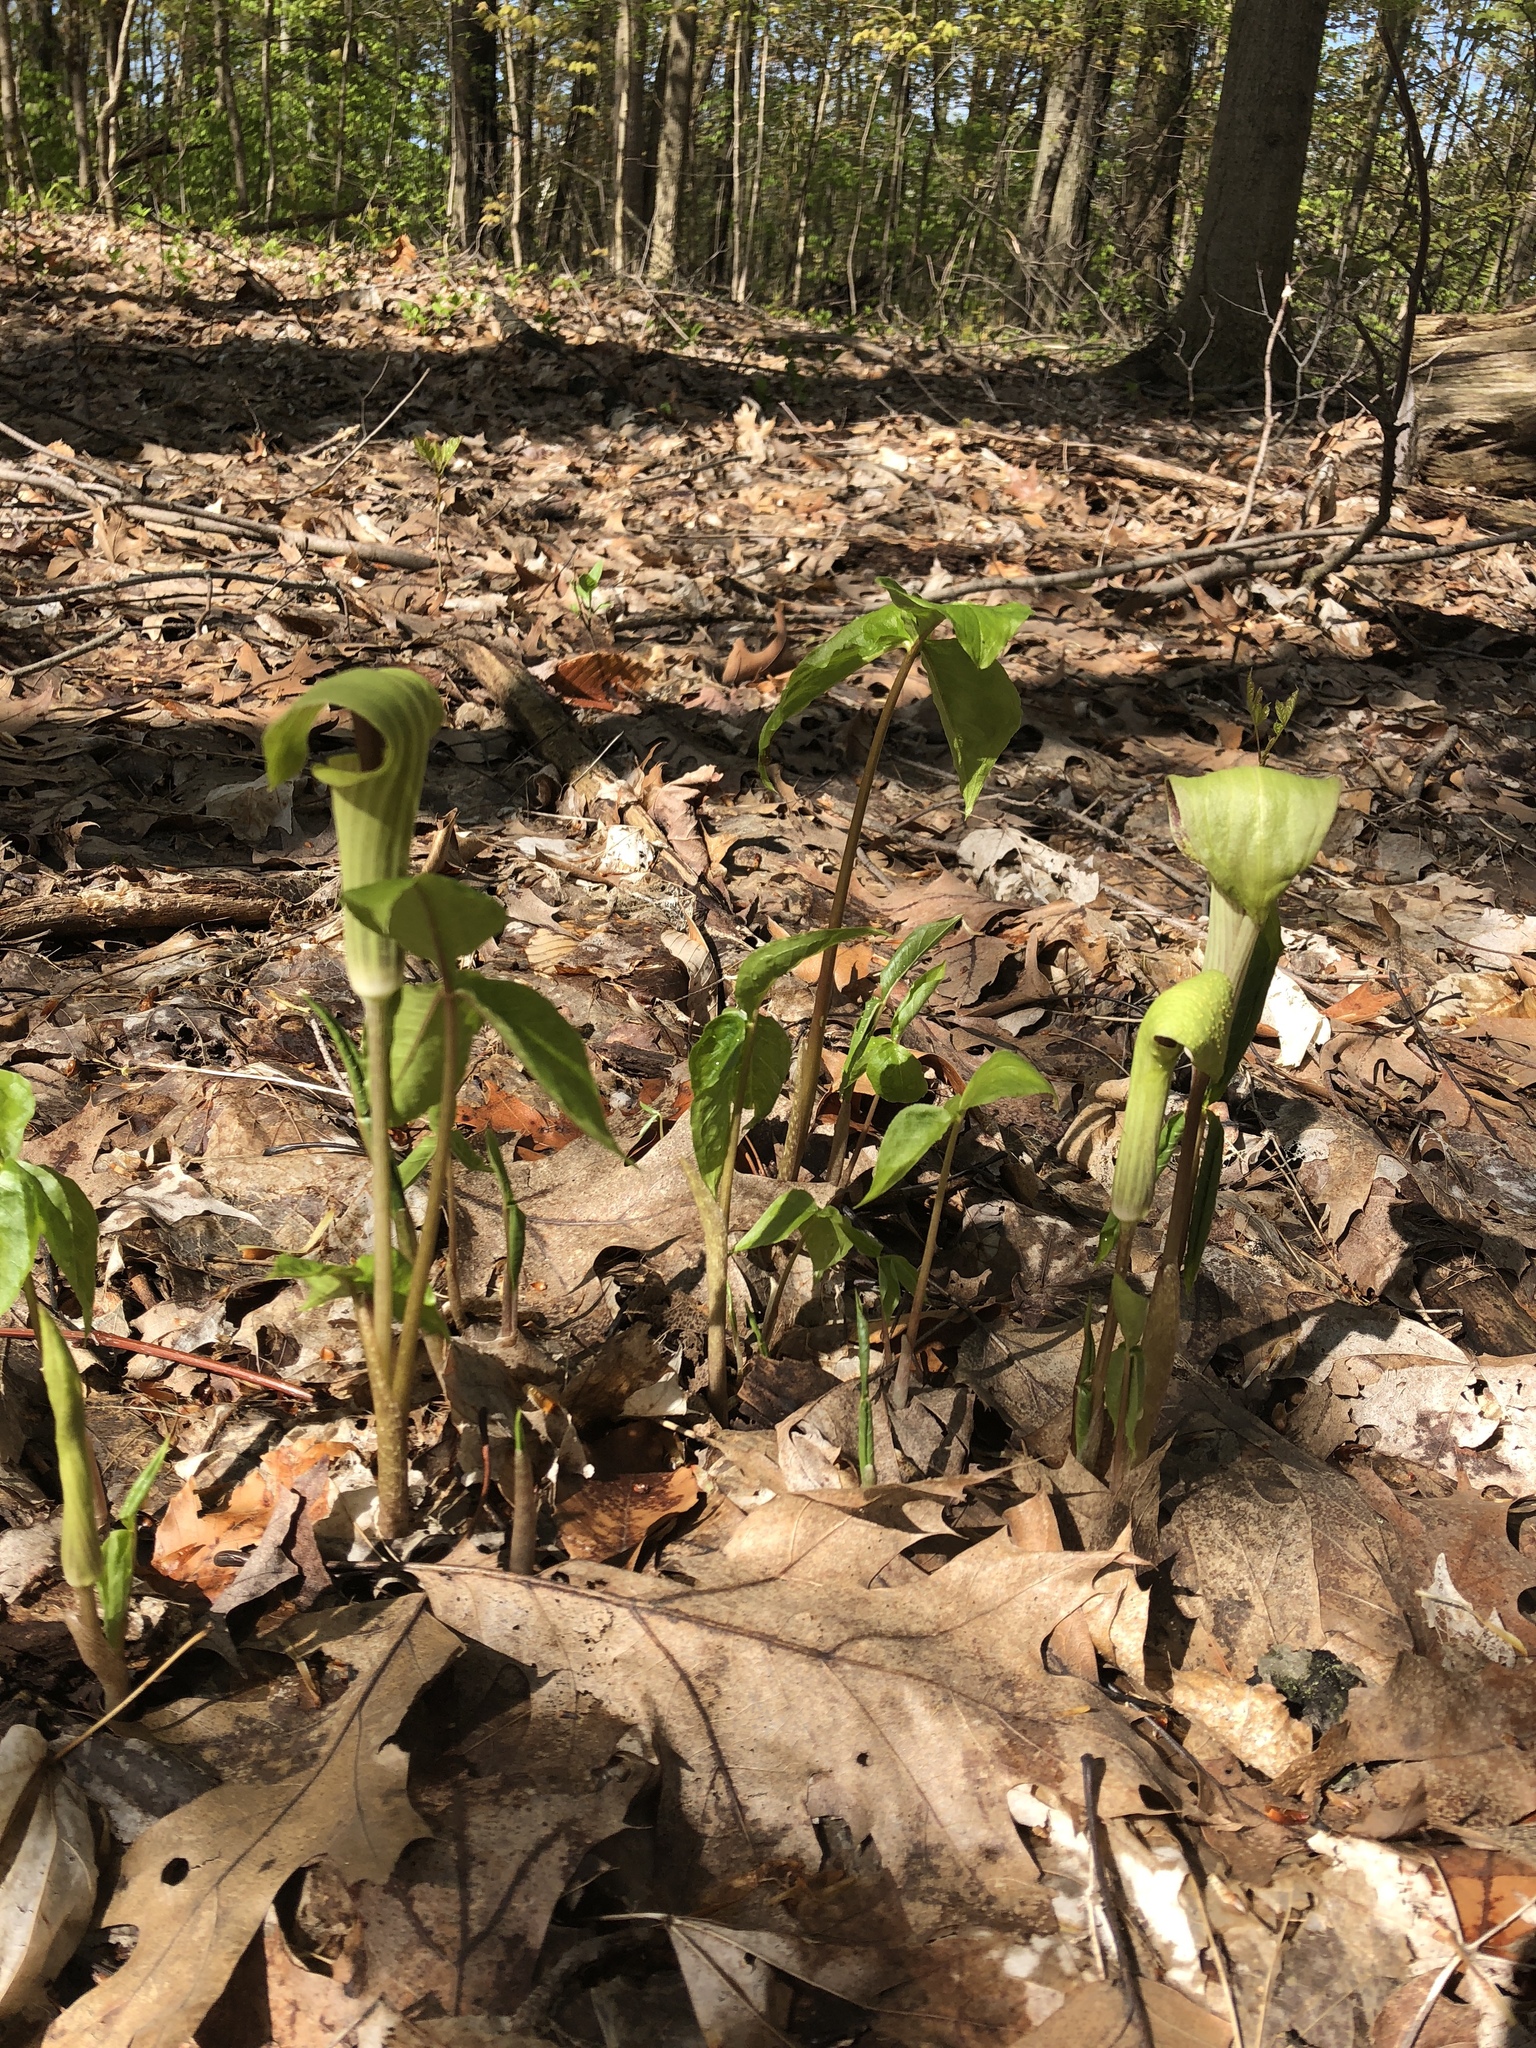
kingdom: Plantae
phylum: Tracheophyta
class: Liliopsida
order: Alismatales
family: Araceae
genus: Arisaema
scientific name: Arisaema triphyllum
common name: Jack-in-the-pulpit
